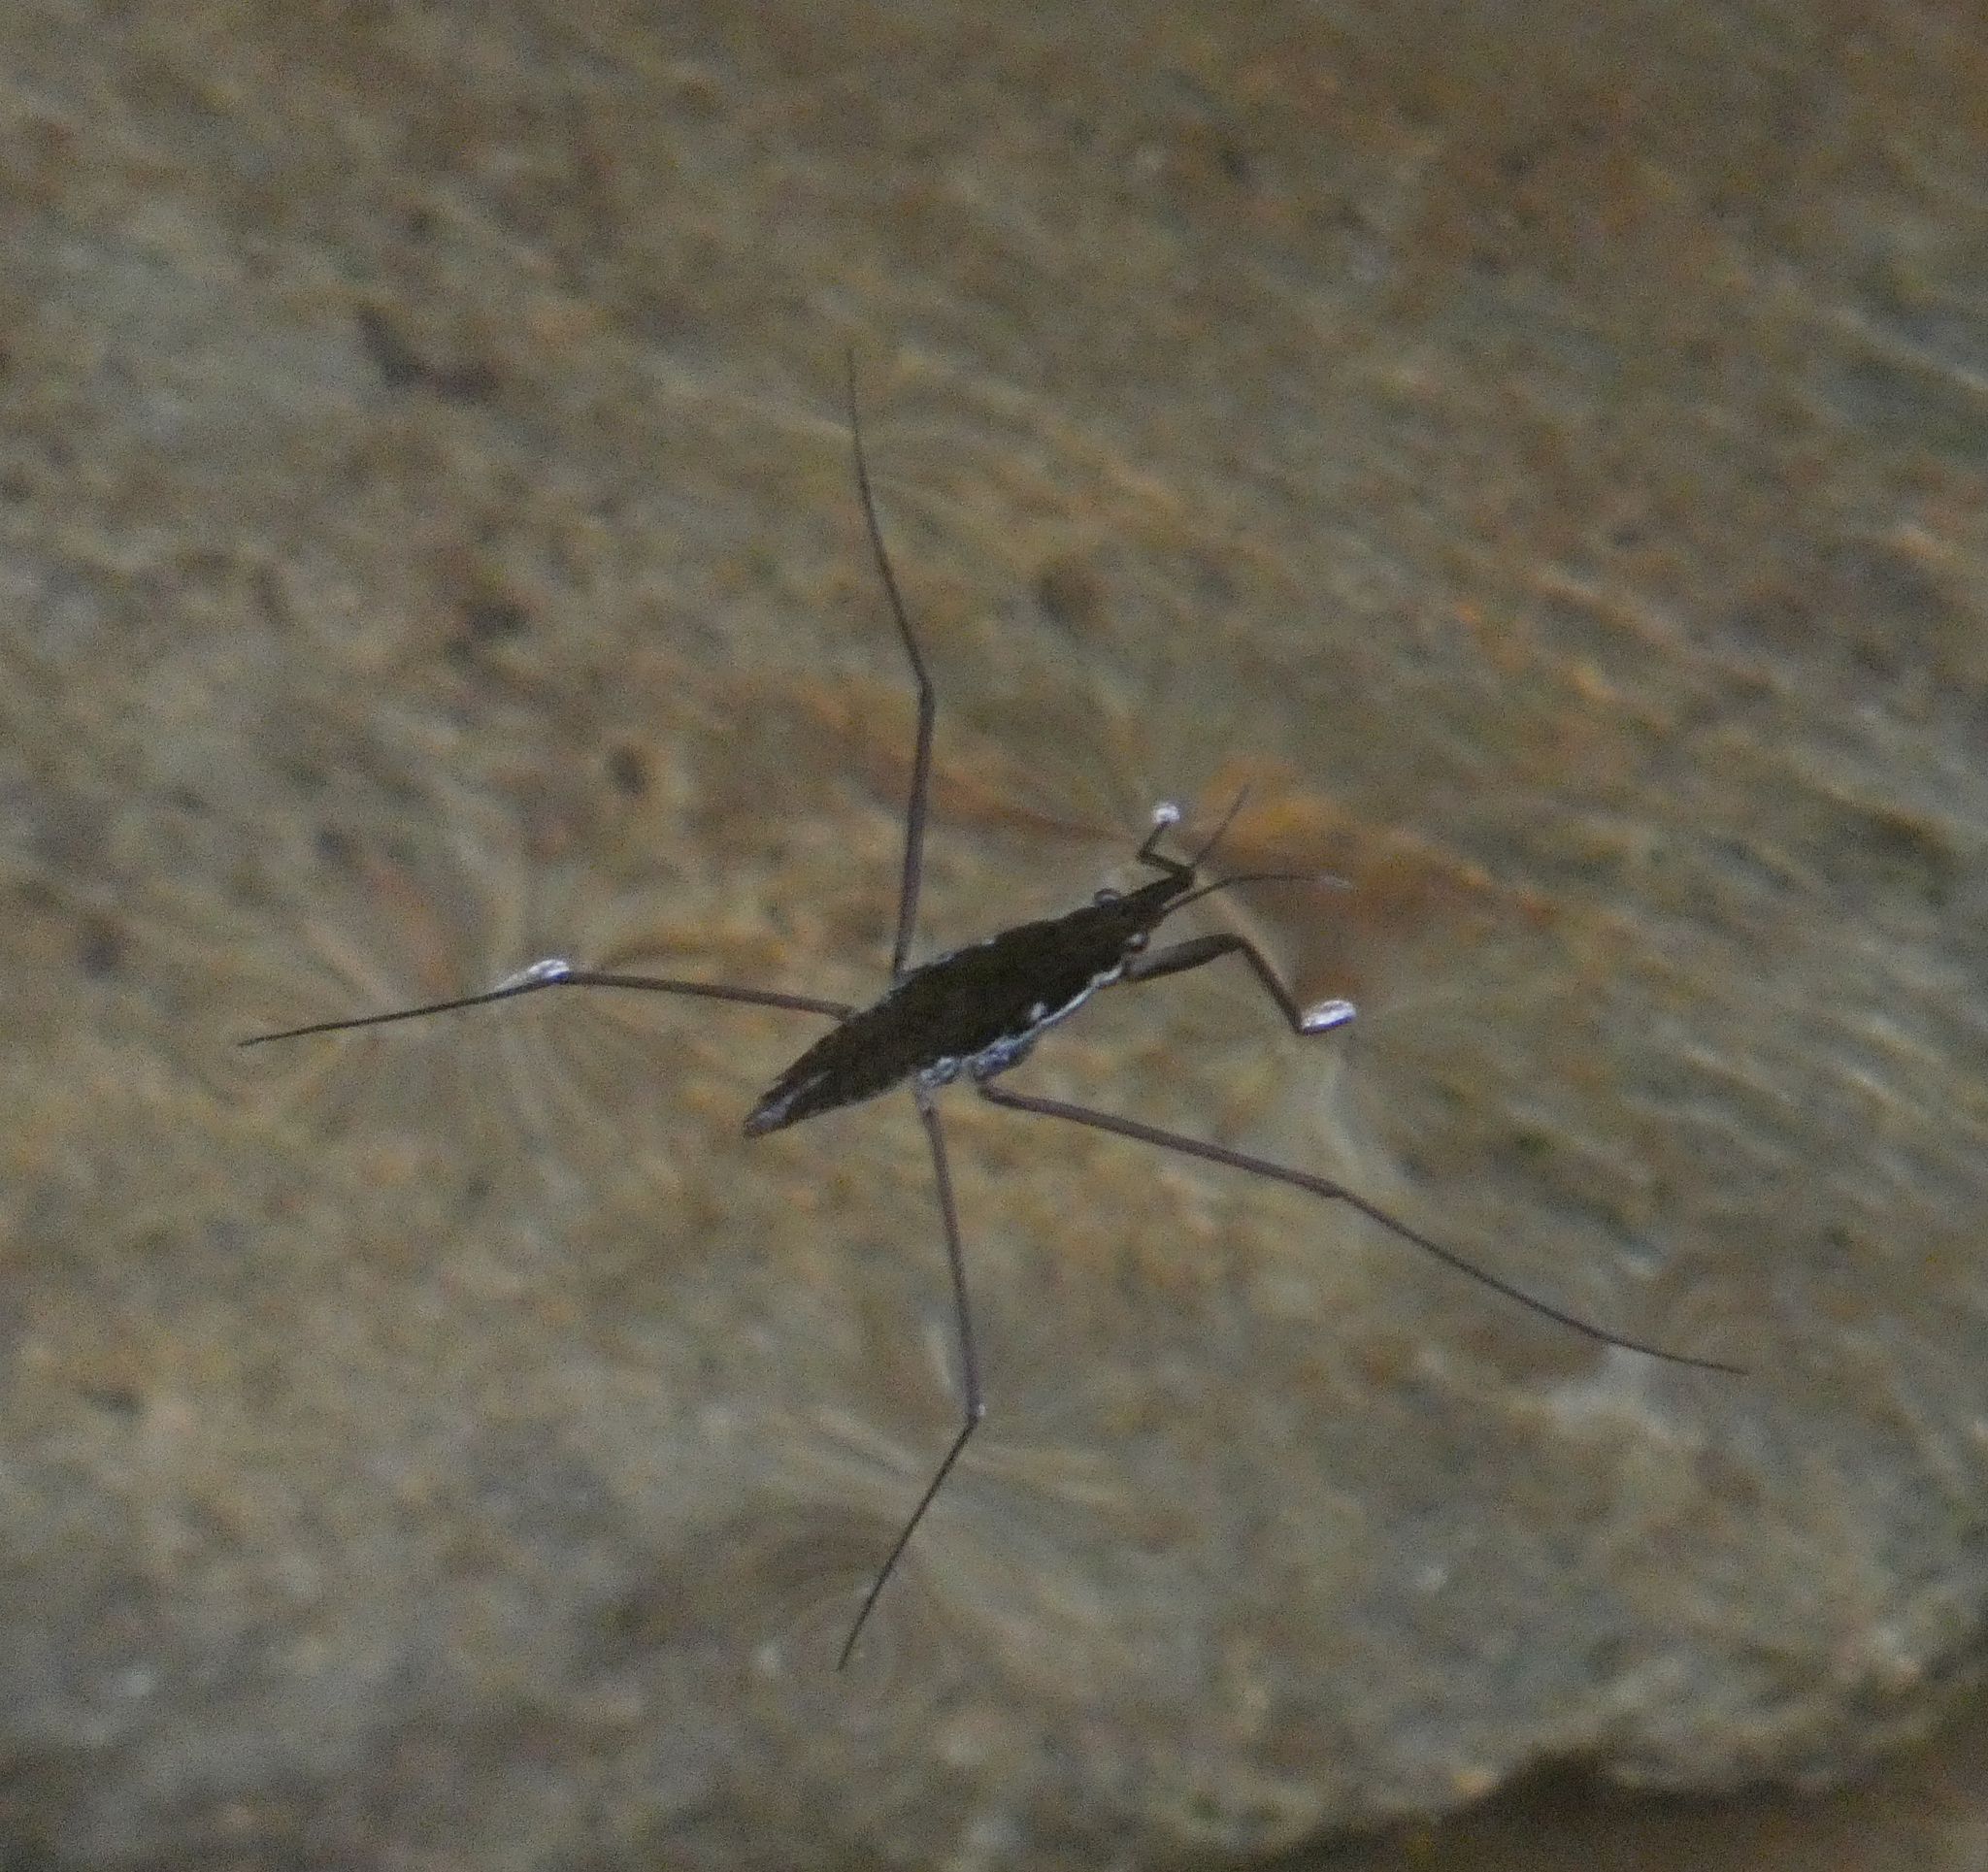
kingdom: Animalia
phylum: Arthropoda
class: Insecta
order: Hemiptera
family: Gerridae
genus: Aquarius
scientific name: Aquarius
